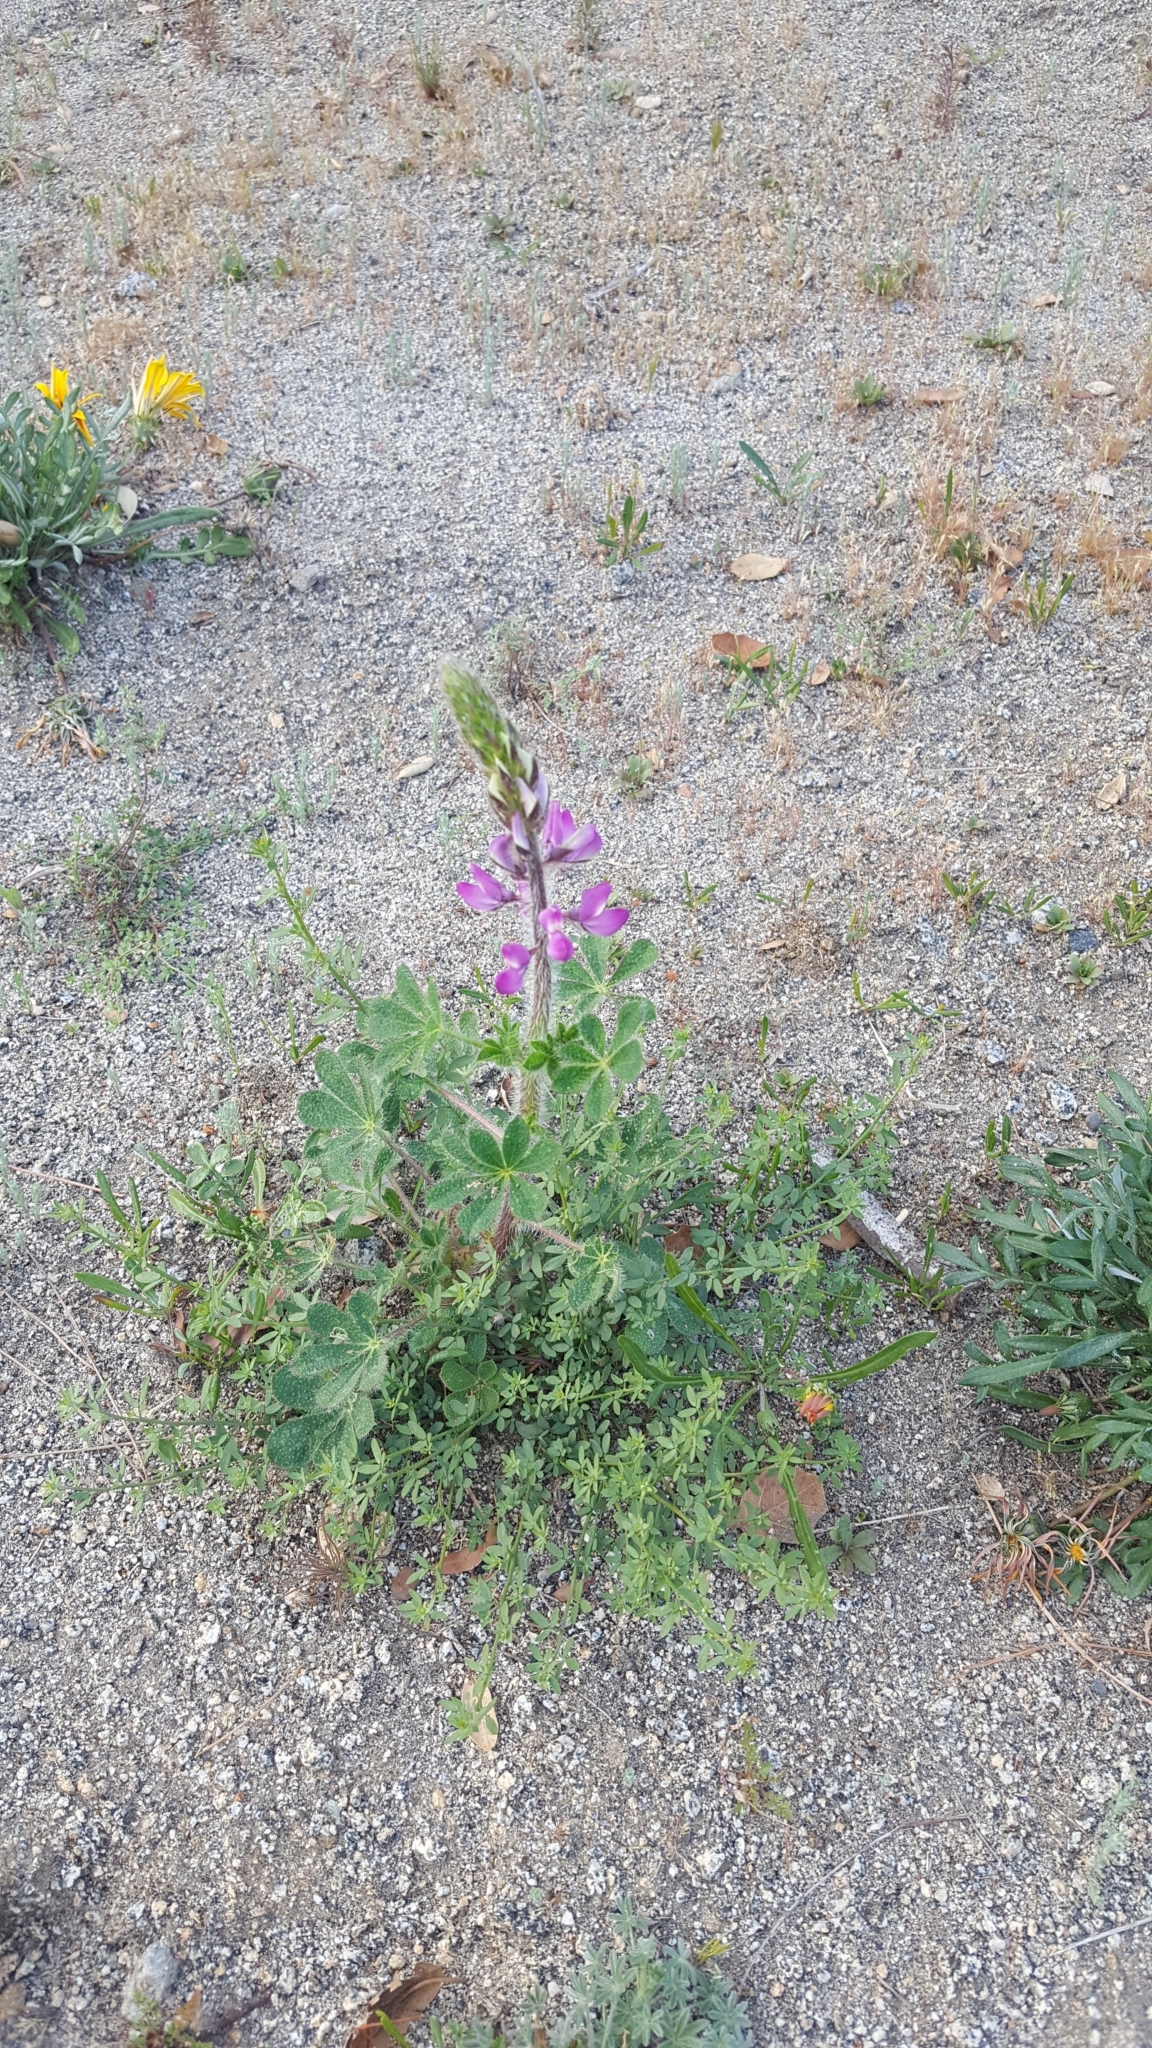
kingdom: Plantae
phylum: Tracheophyta
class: Magnoliopsida
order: Fabales
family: Fabaceae
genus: Lupinus
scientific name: Lupinus hirsutissimus
